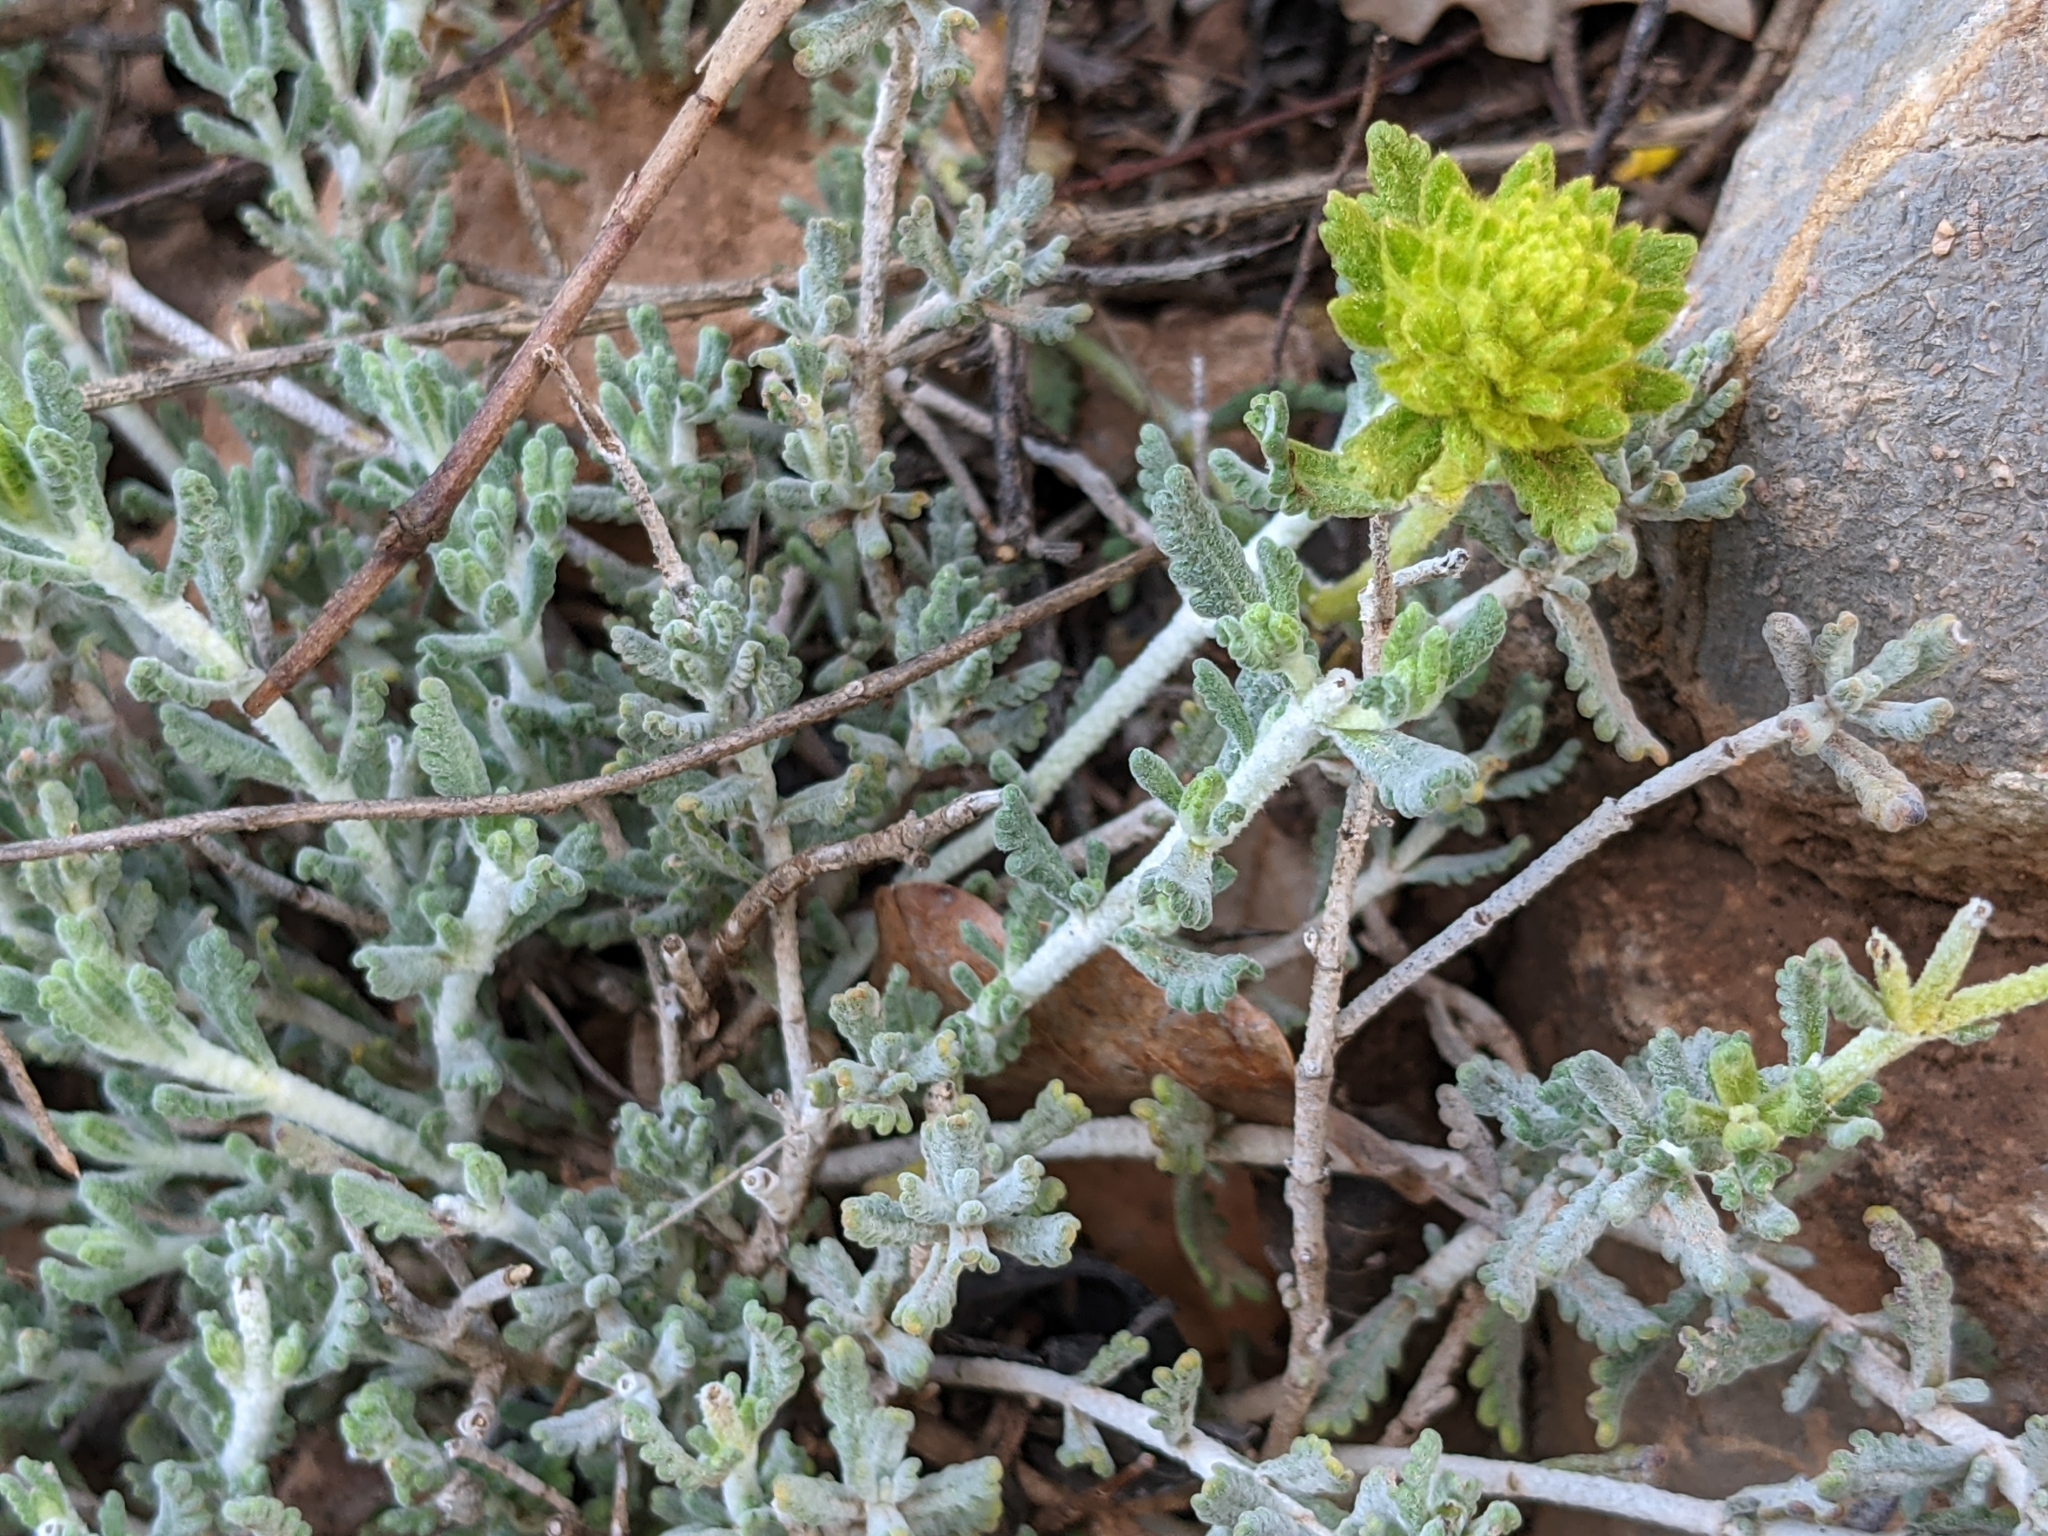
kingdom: Plantae
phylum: Tracheophyta
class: Magnoliopsida
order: Lamiales
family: Lamiaceae
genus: Teucrium
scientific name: Teucrium aureum
